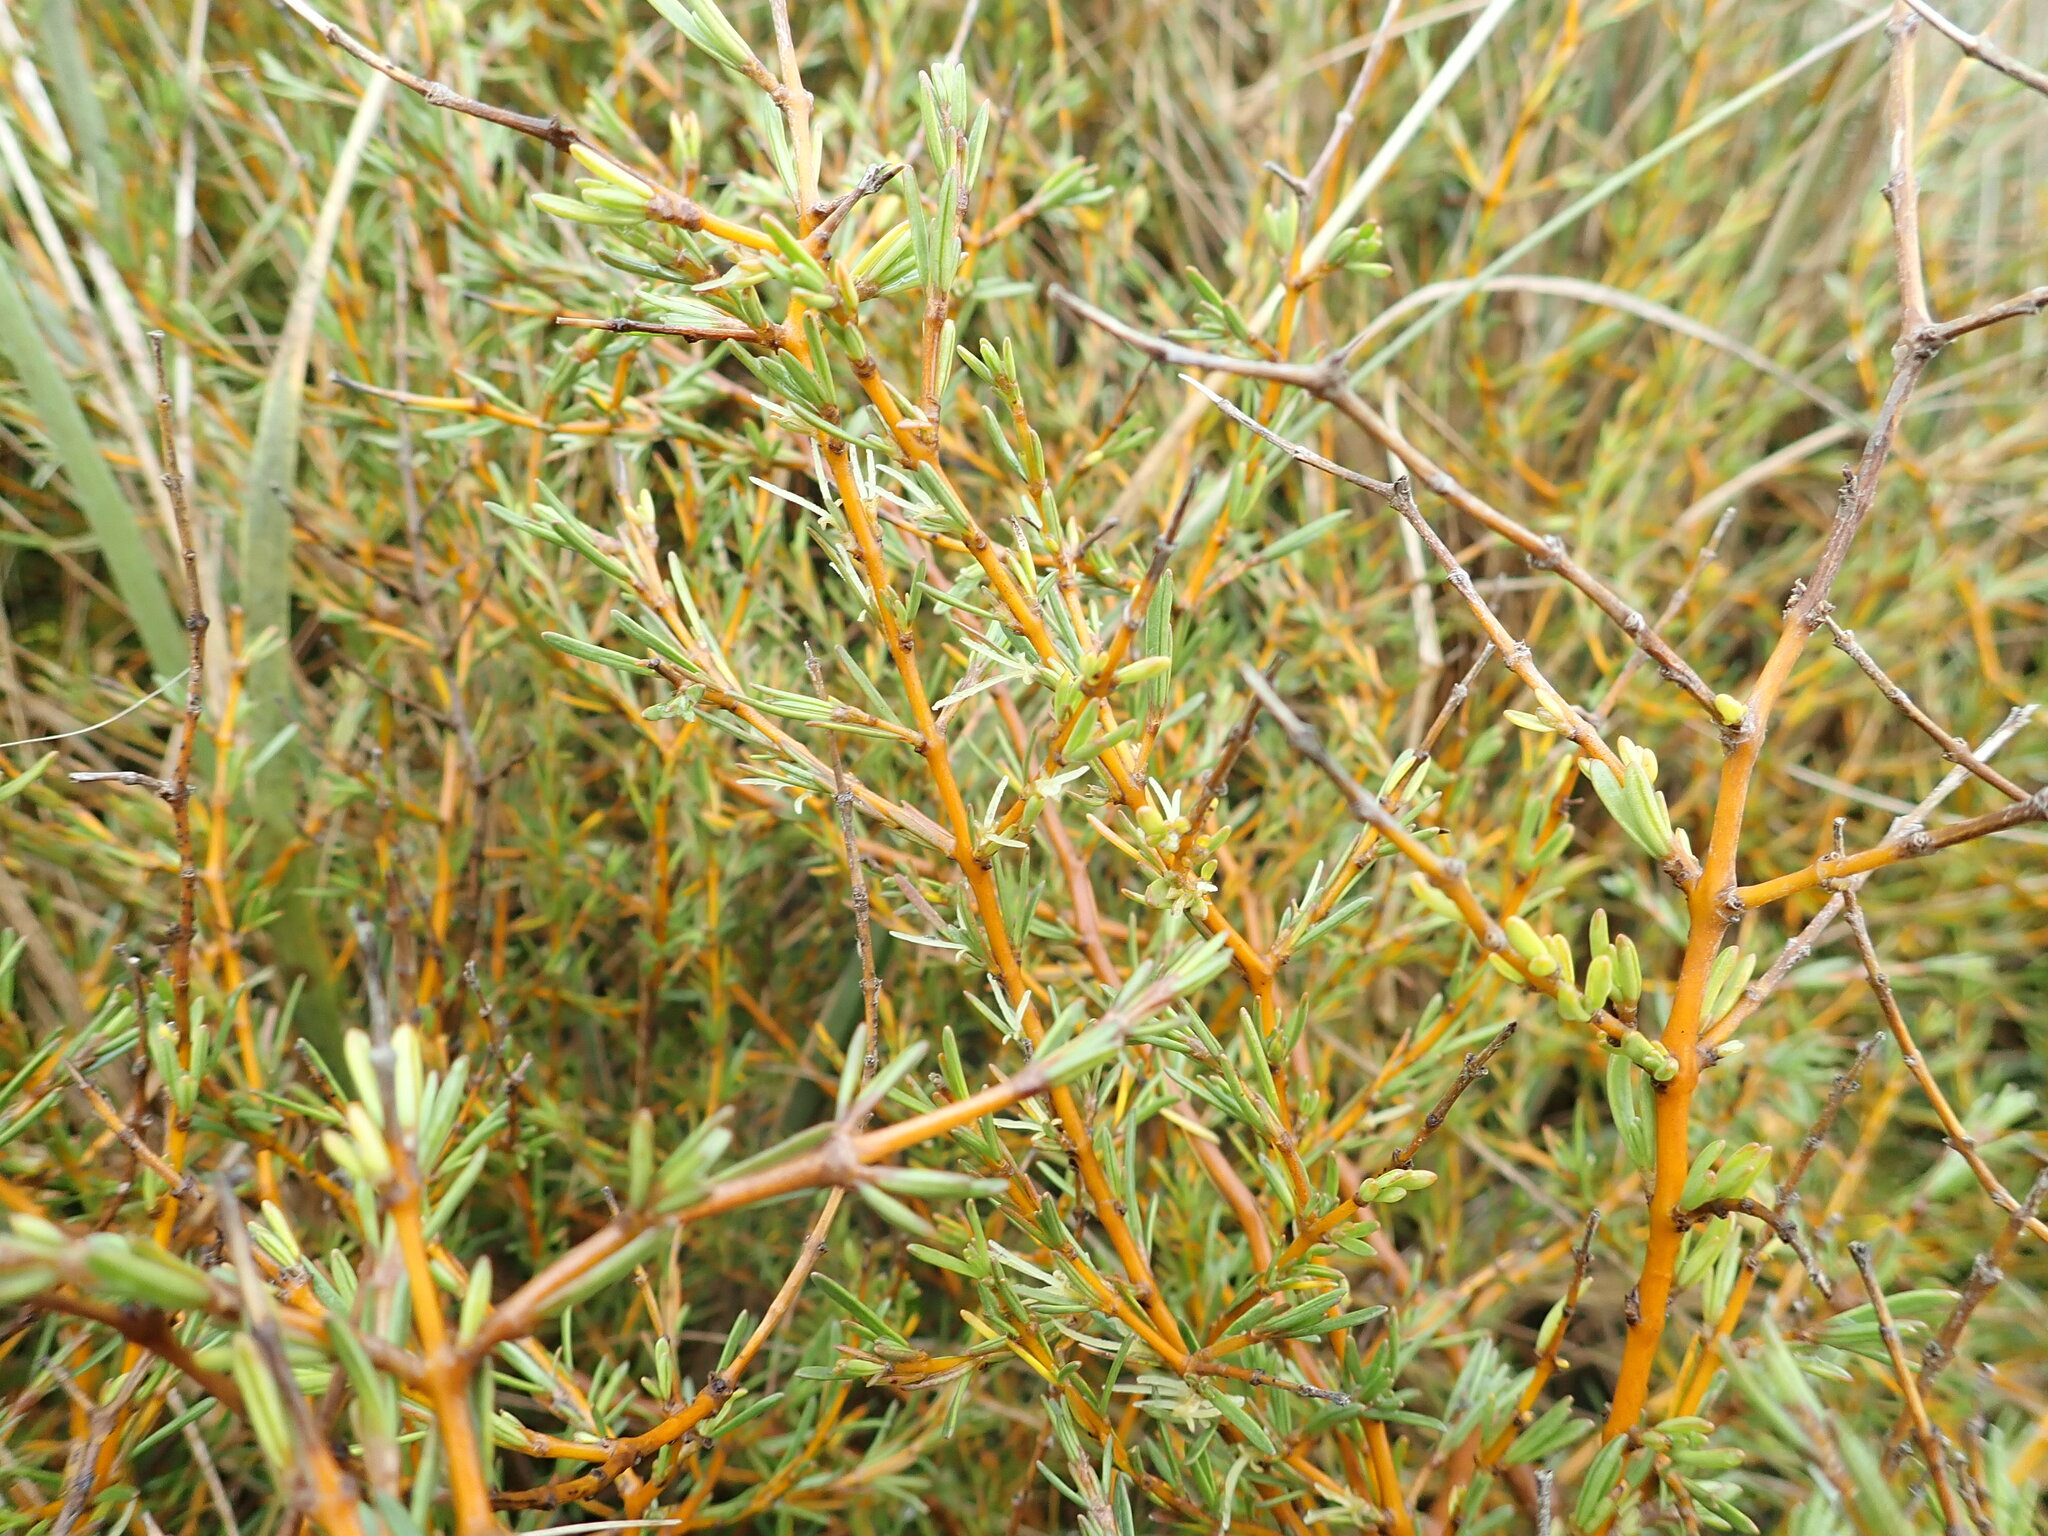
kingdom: Plantae
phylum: Tracheophyta
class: Magnoliopsida
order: Gentianales
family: Rubiaceae
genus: Coprosma
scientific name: Coprosma acerosa
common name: Sand coprosma
